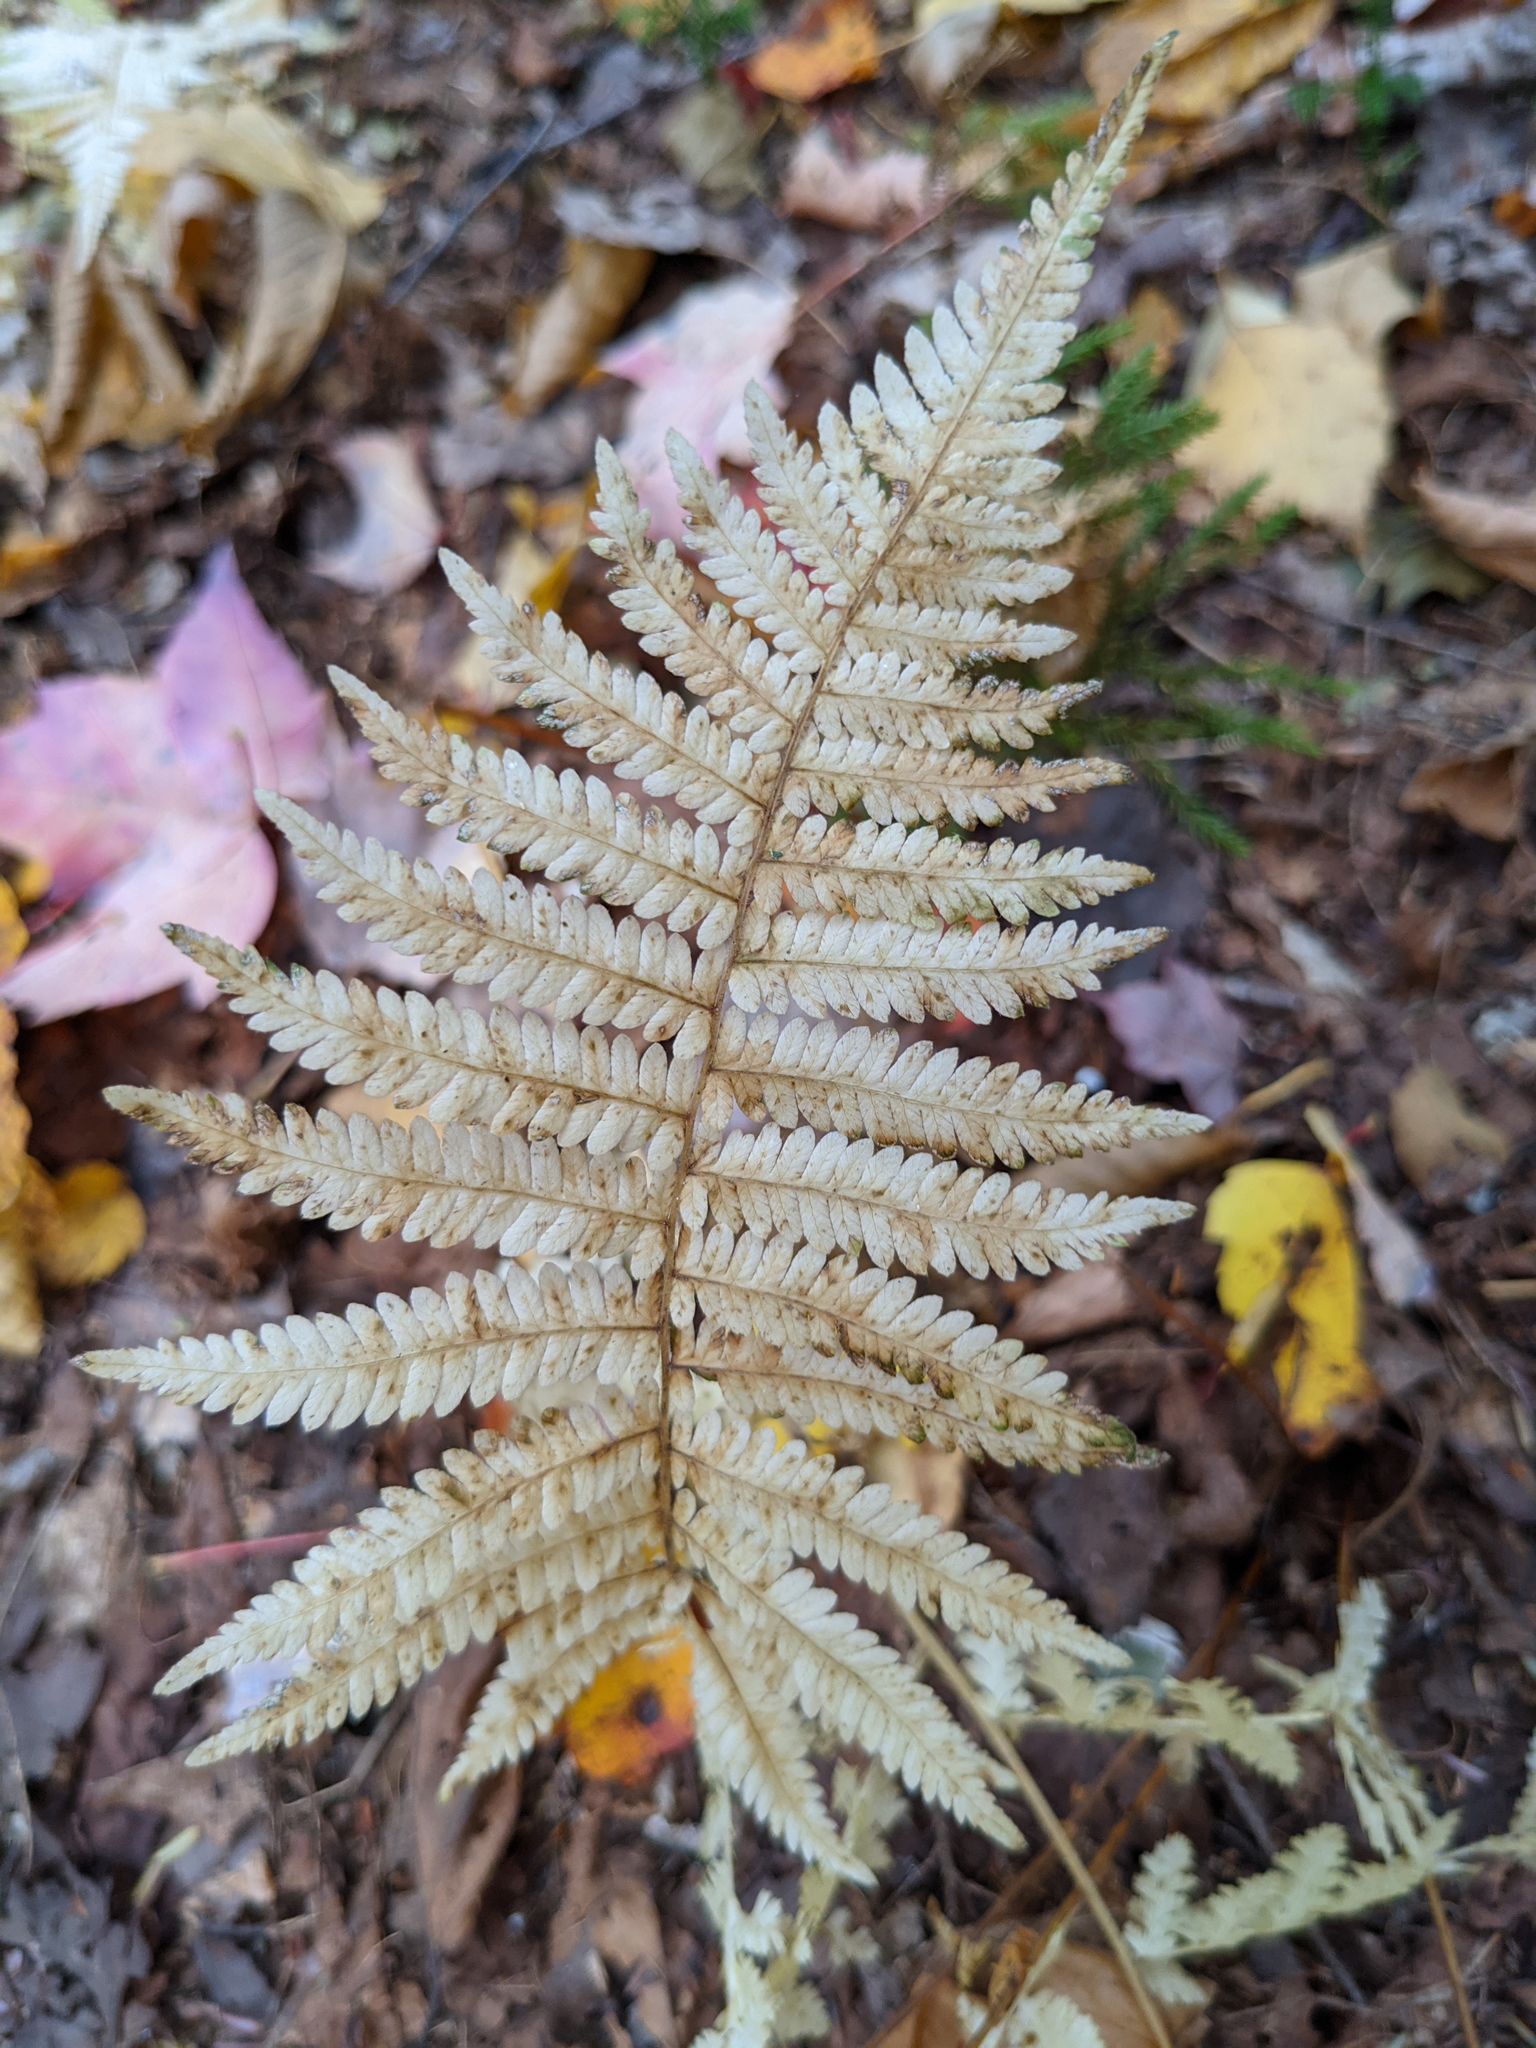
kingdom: Plantae
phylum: Tracheophyta
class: Polypodiopsida
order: Polypodiales
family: Thelypteridaceae
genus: Amauropelta
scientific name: Amauropelta noveboracensis
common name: New york fern
